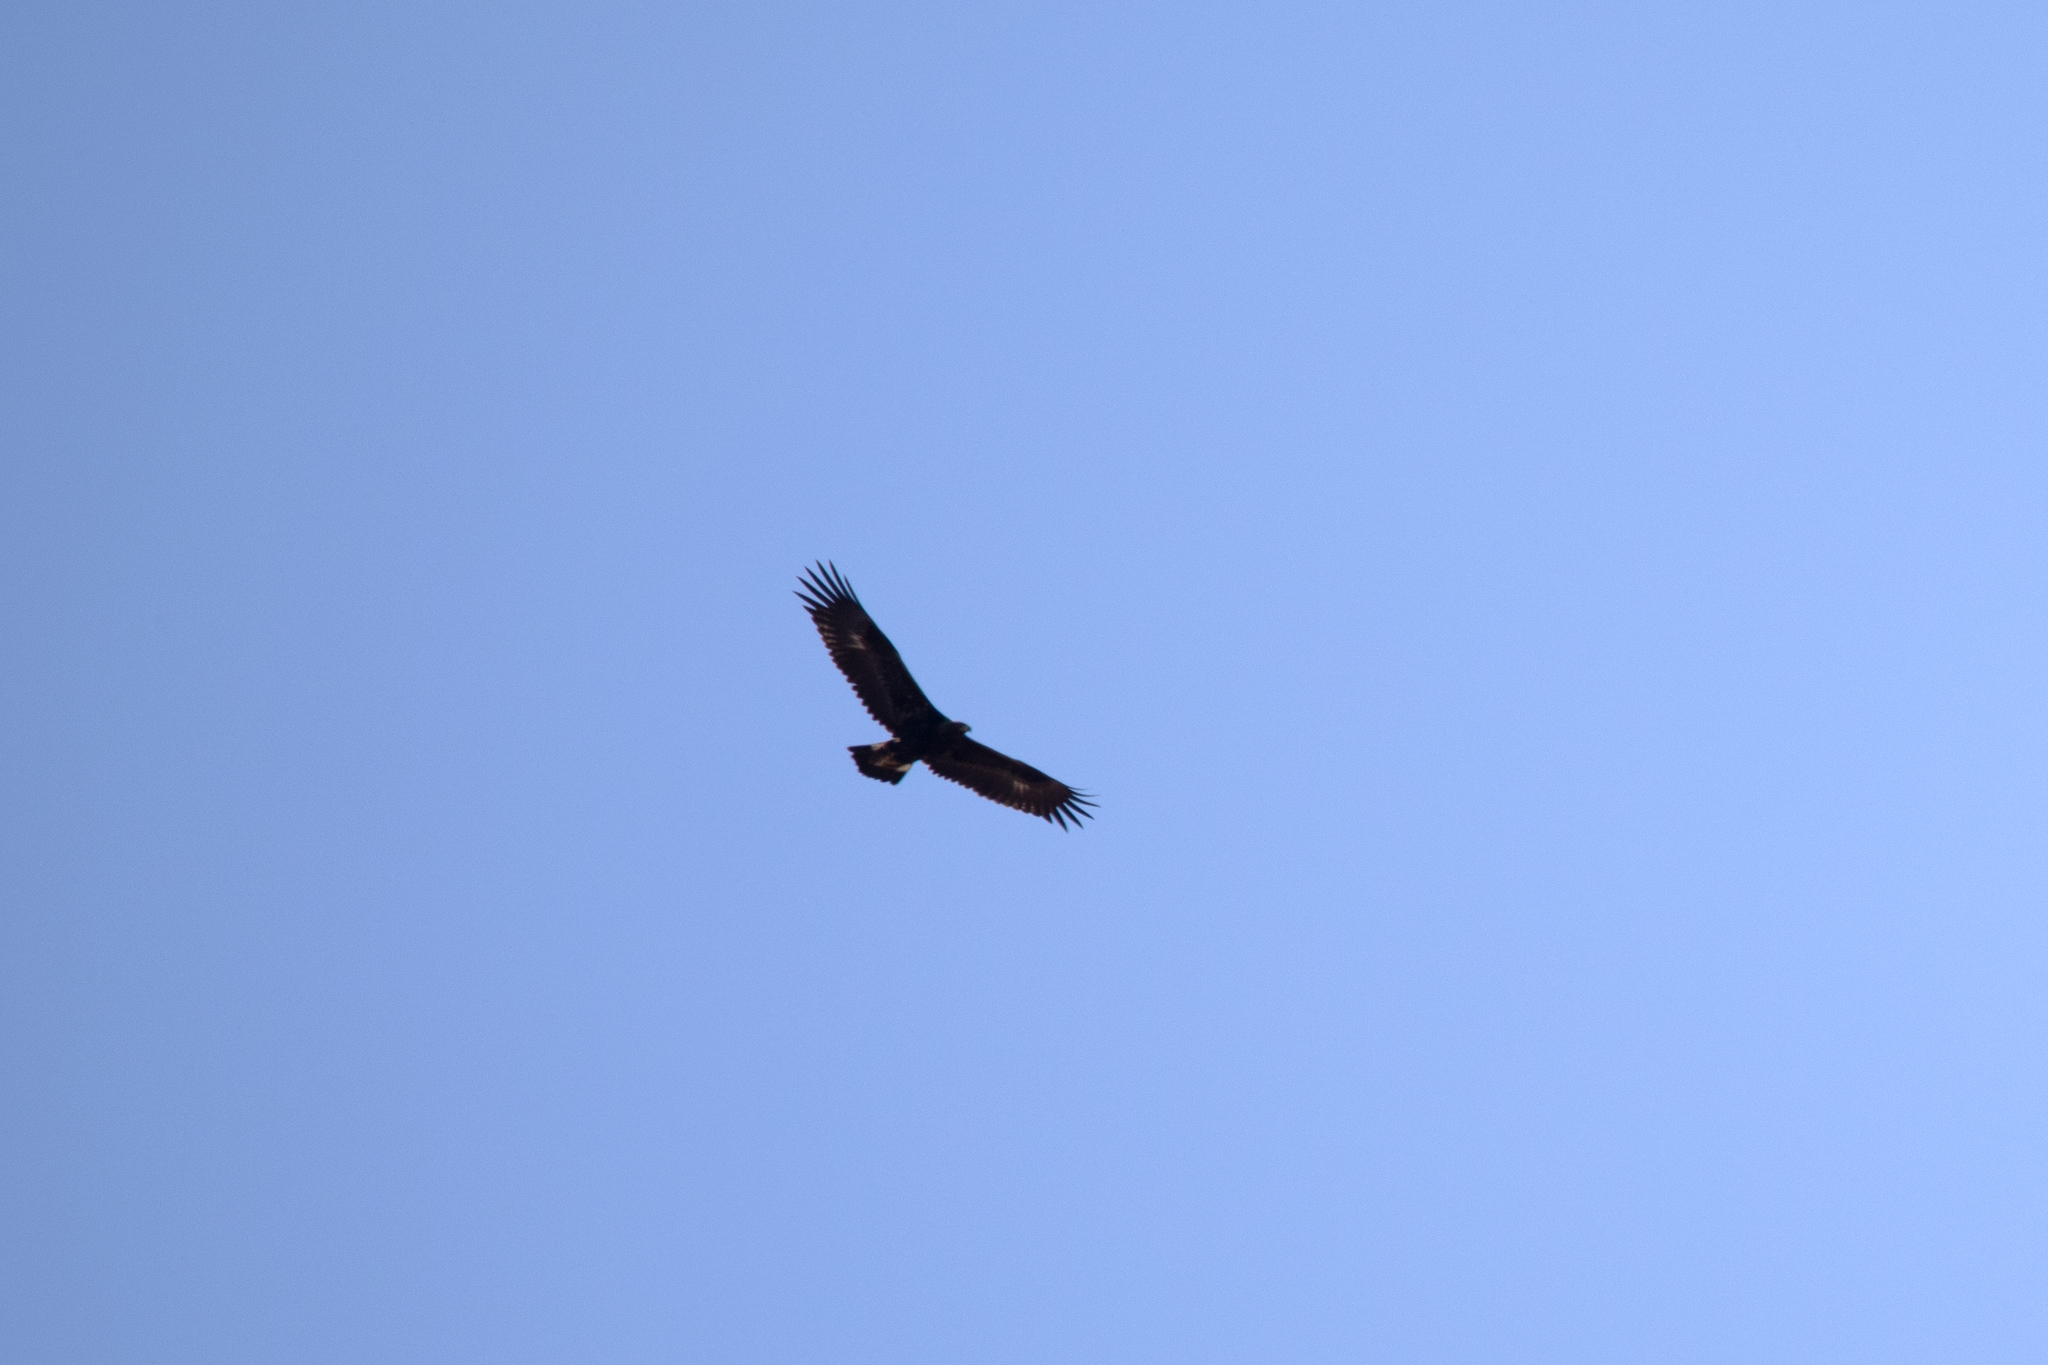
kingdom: Animalia
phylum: Chordata
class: Aves
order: Accipitriformes
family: Accipitridae
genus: Aquila
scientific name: Aquila chrysaetos
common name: Golden eagle
